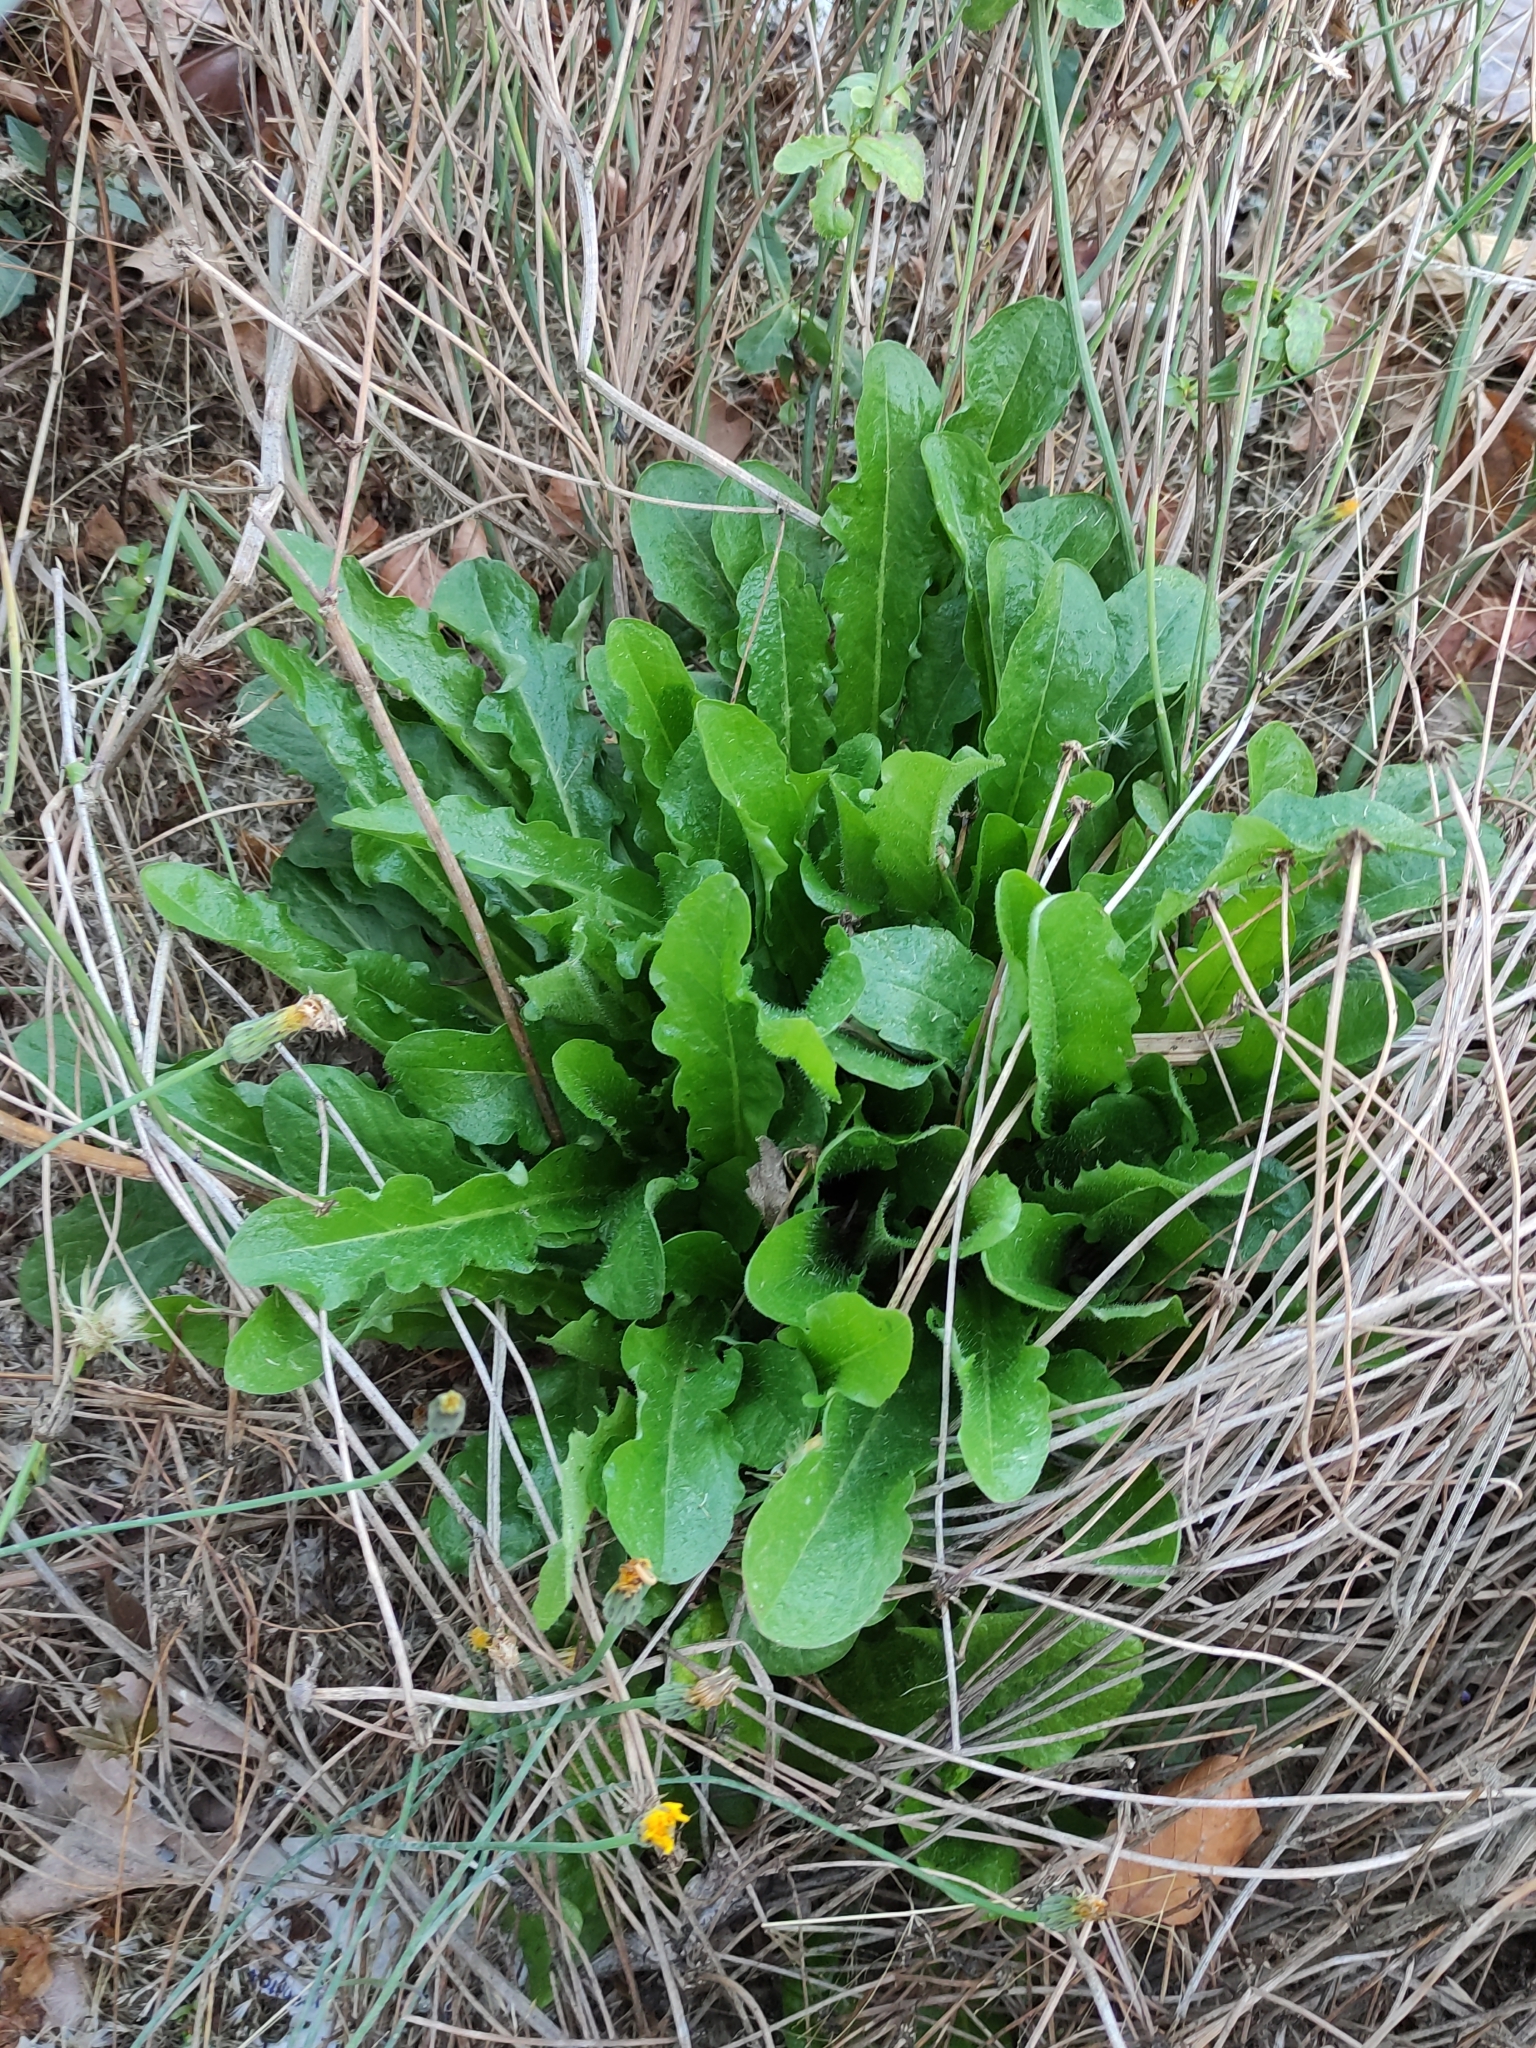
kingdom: Plantae
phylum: Tracheophyta
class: Magnoliopsida
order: Asterales
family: Asteraceae
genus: Hypochaeris
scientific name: Hypochaeris radicata
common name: Flatweed
